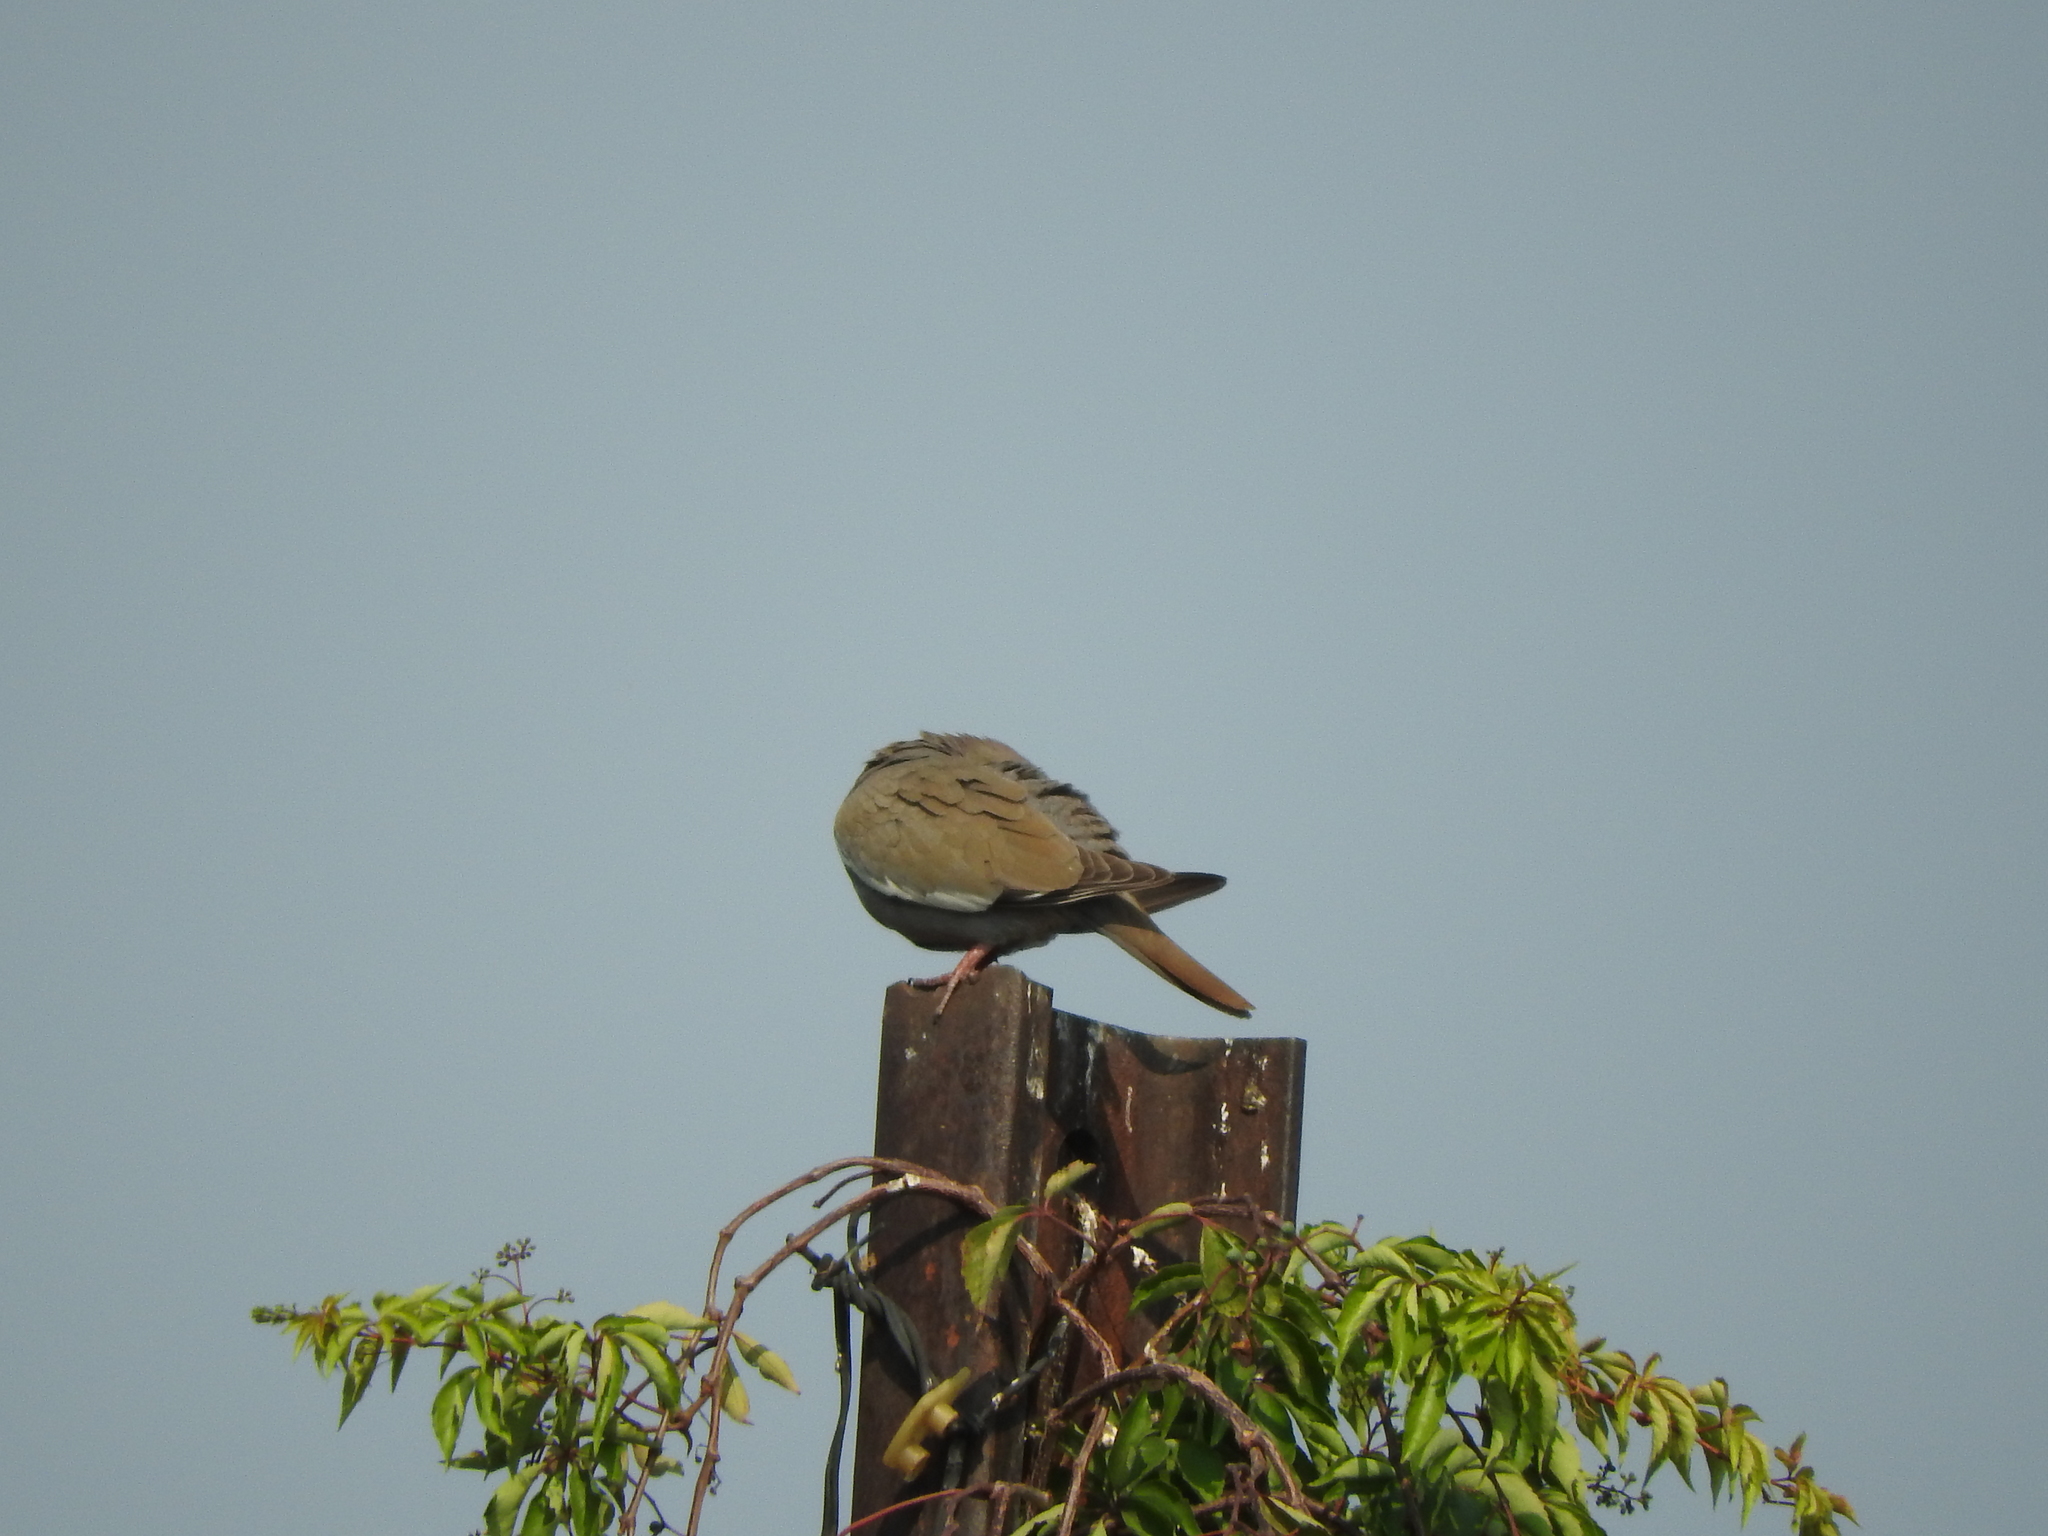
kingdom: Animalia
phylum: Chordata
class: Aves
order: Columbiformes
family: Columbidae
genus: Zenaida
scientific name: Zenaida asiatica
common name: White-winged dove
